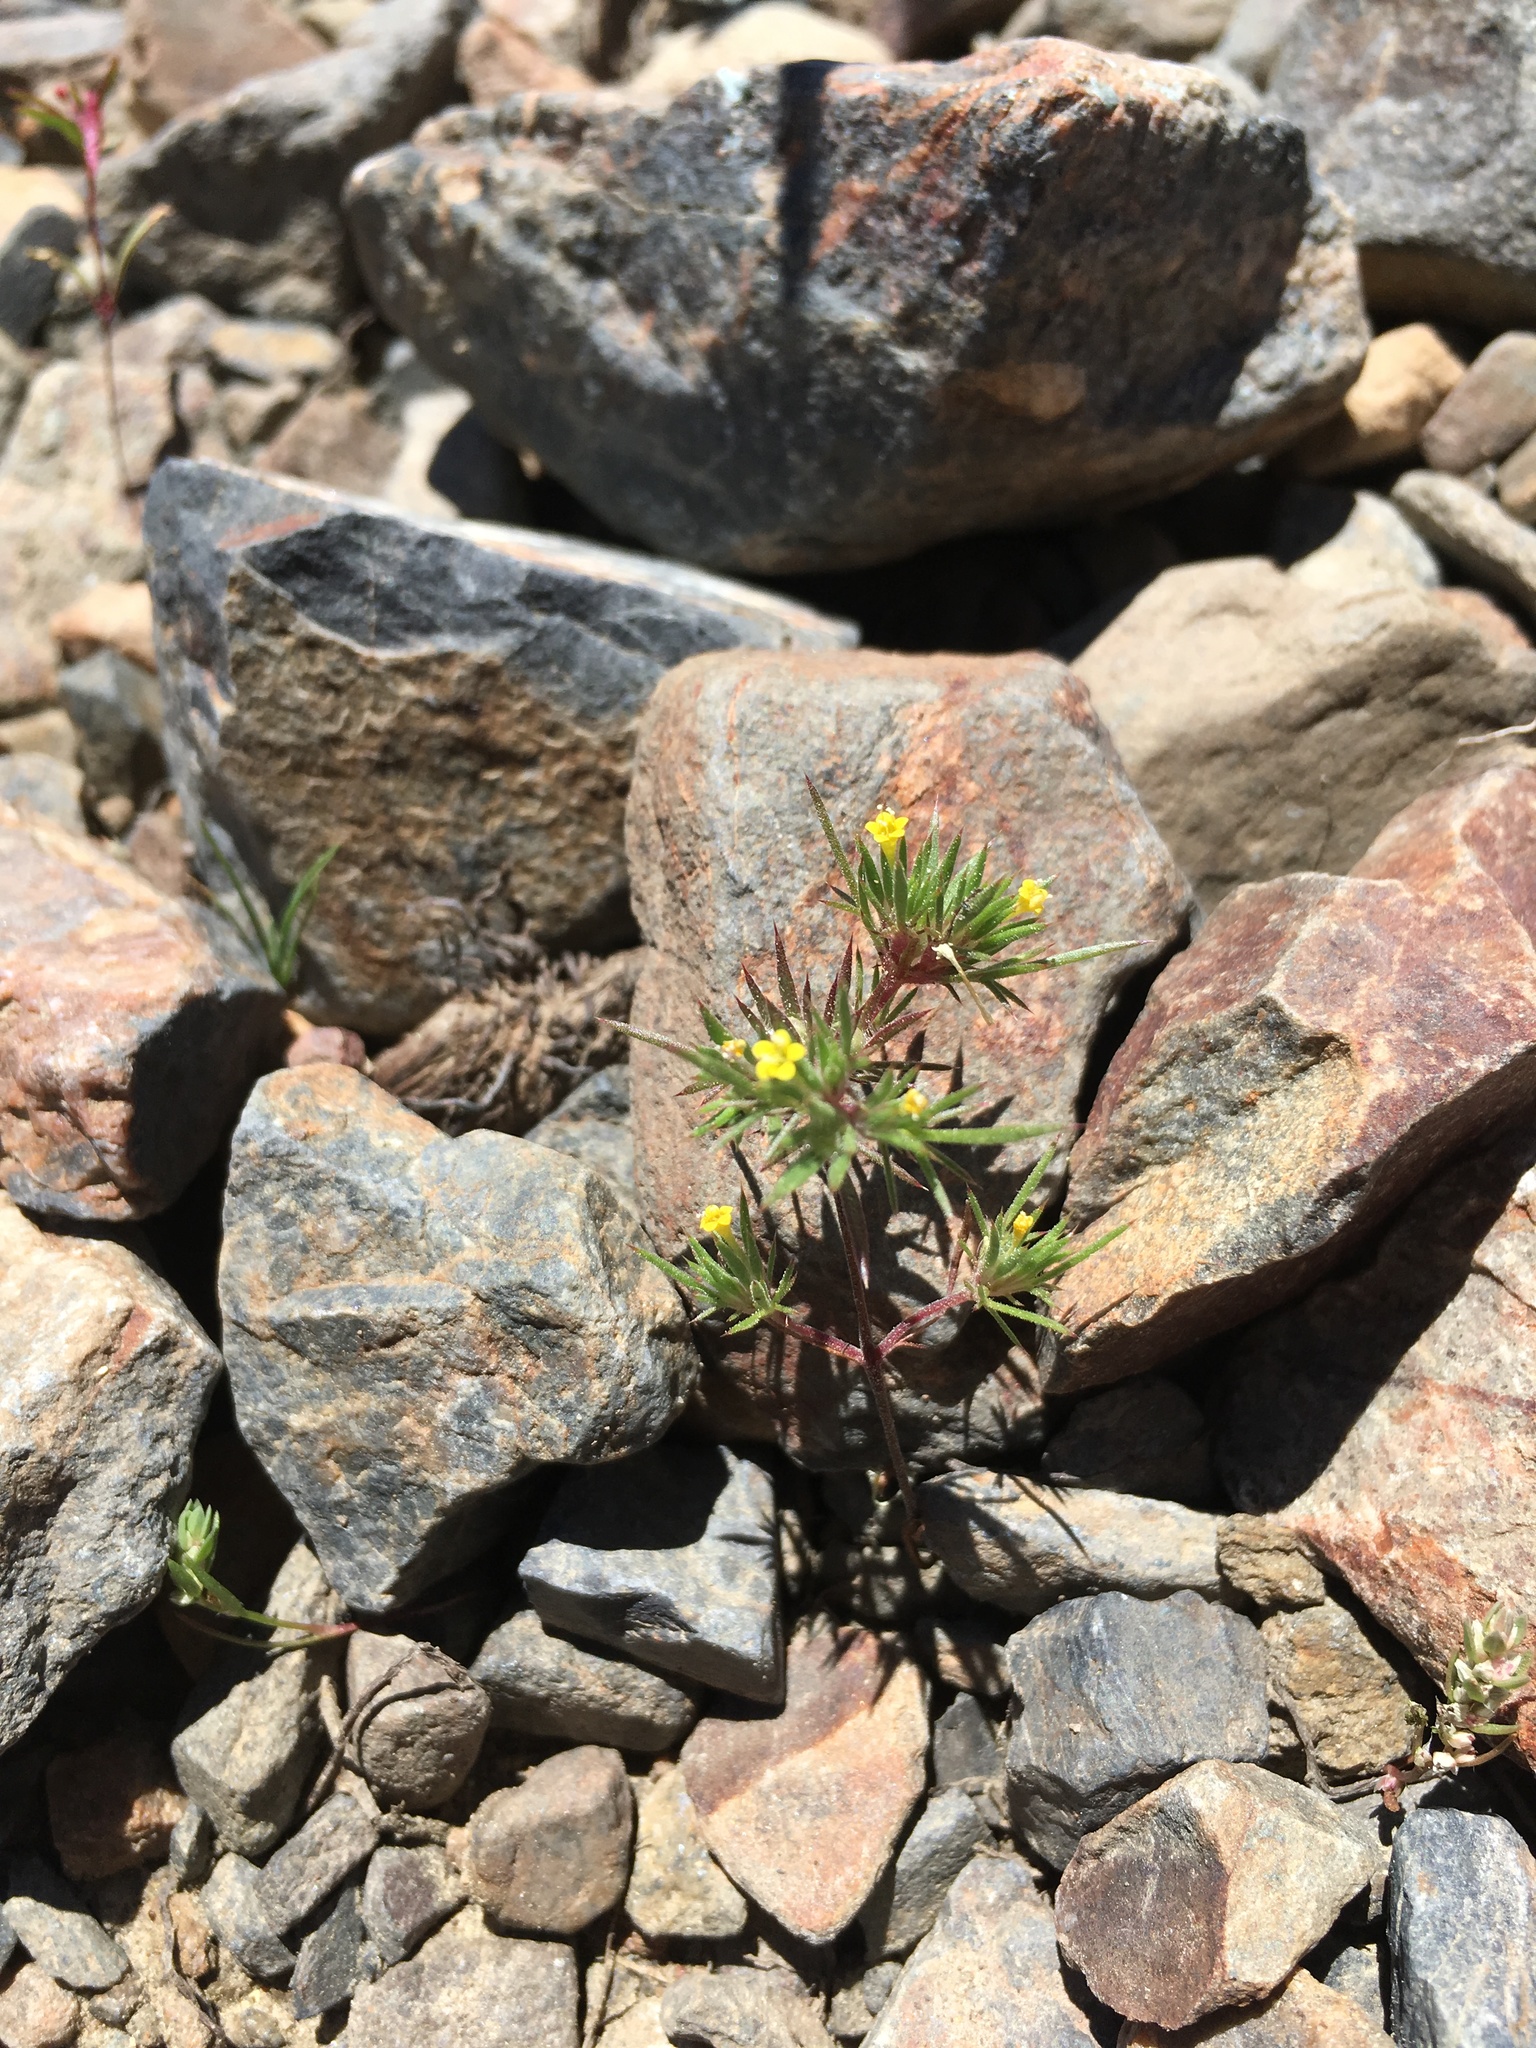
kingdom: Plantae
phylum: Tracheophyta
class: Magnoliopsida
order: Ericales
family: Polemoniaceae
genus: Navarretia
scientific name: Navarretia breweri
